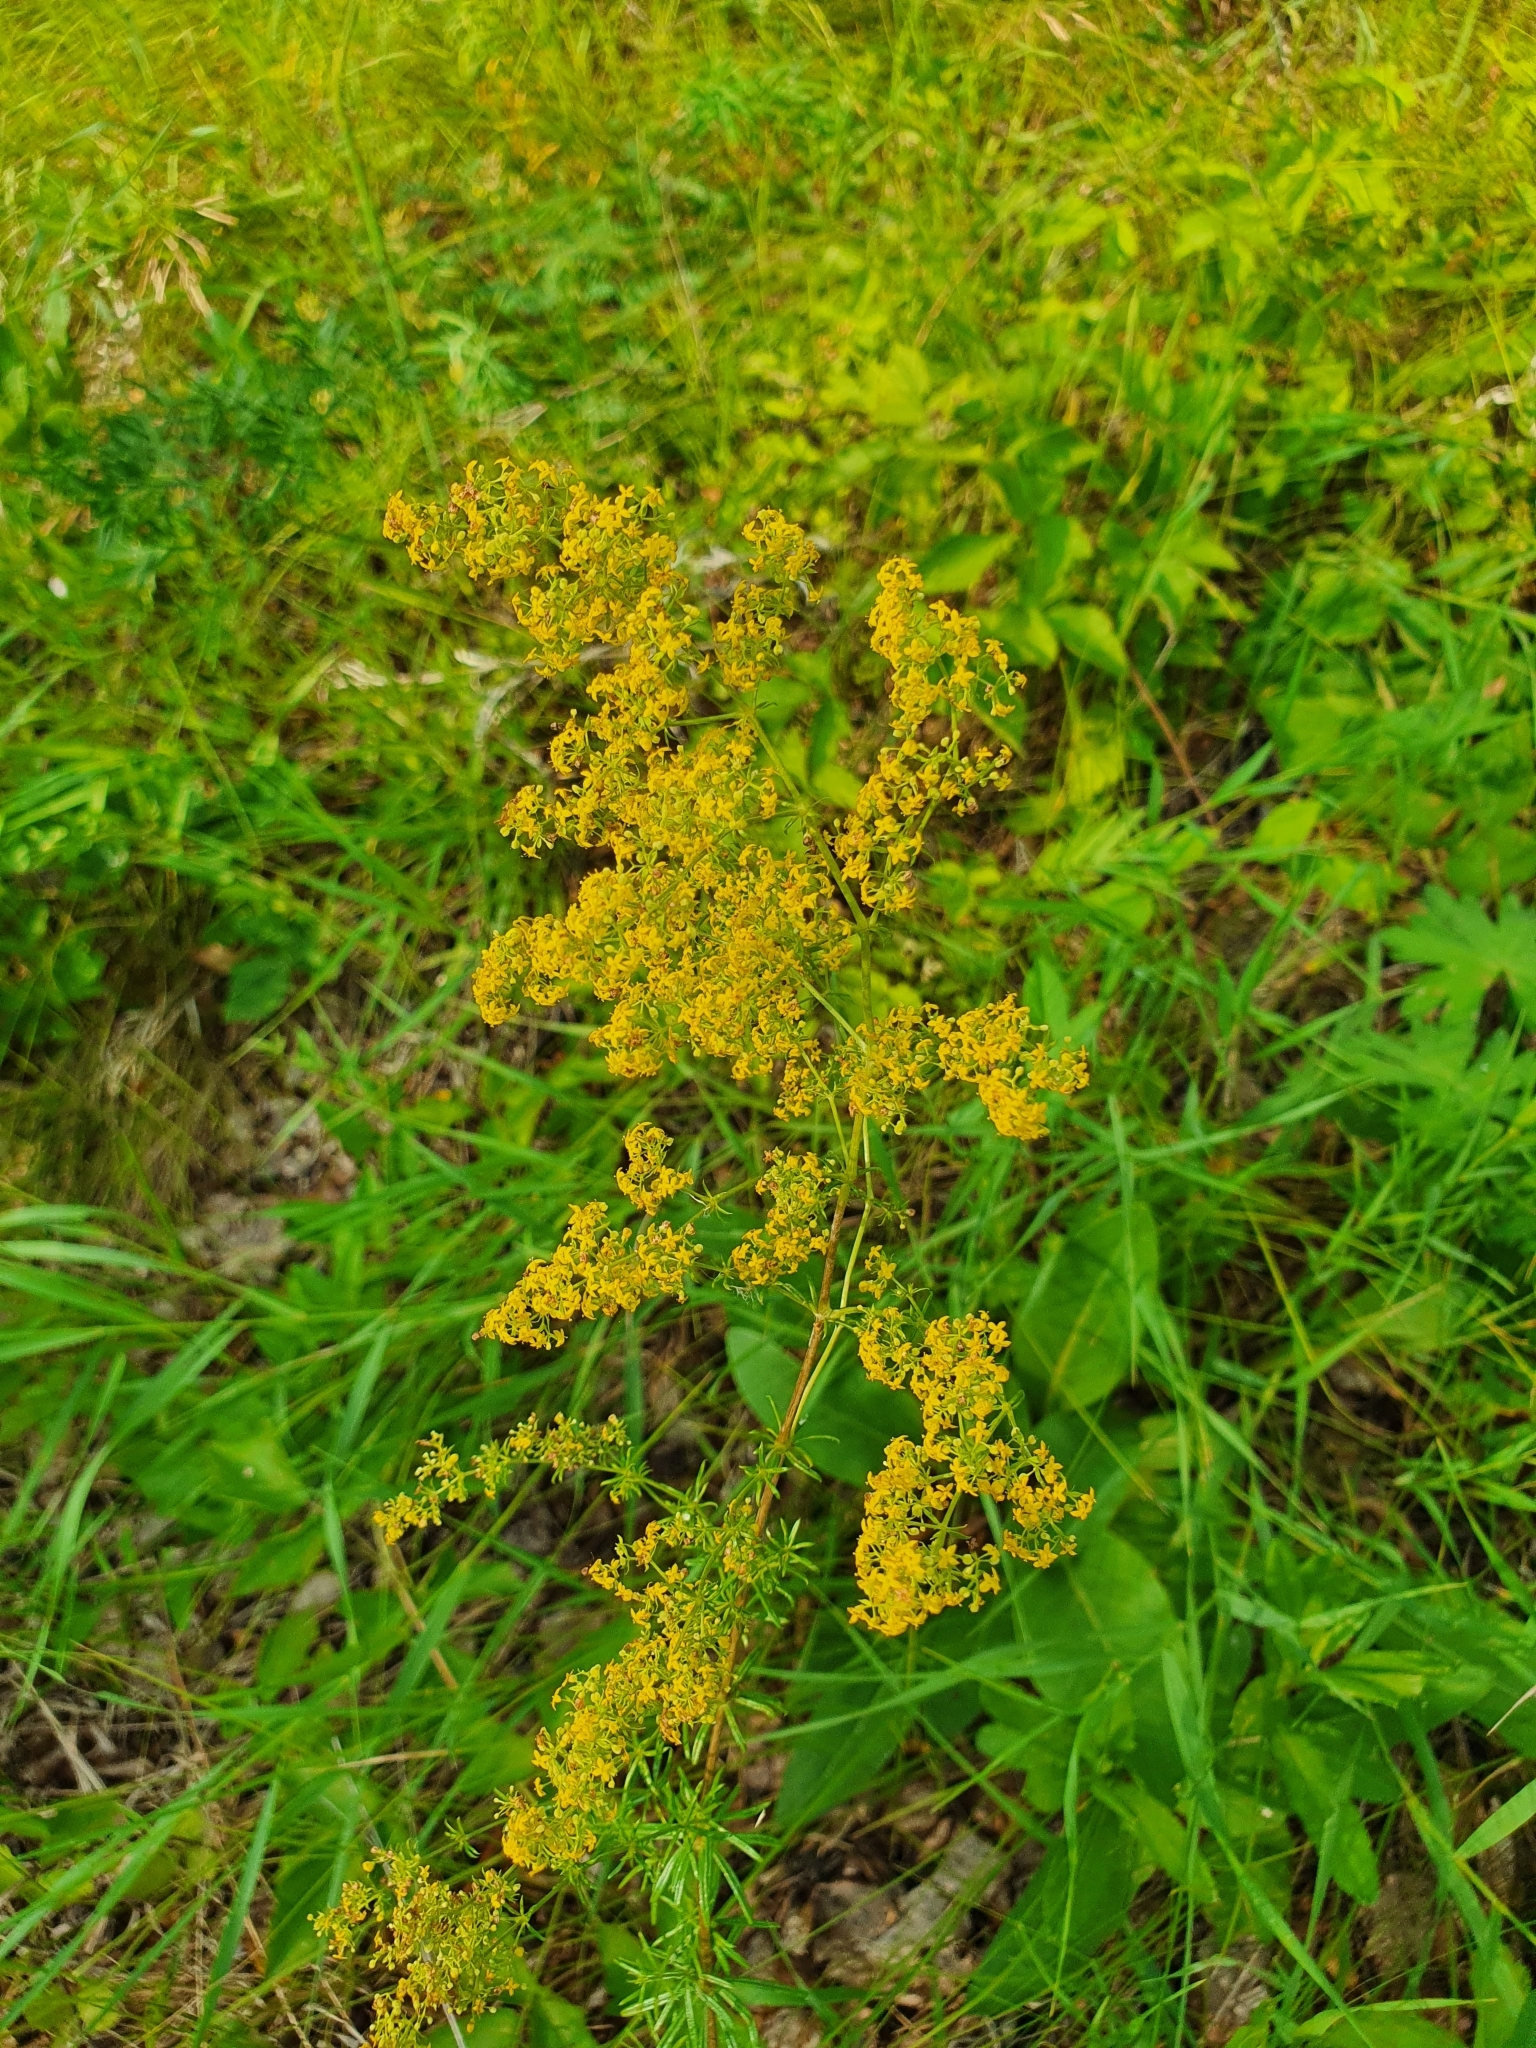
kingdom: Plantae
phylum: Tracheophyta
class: Magnoliopsida
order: Gentianales
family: Rubiaceae
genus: Galium
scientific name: Galium verum
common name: Lady's bedstraw
